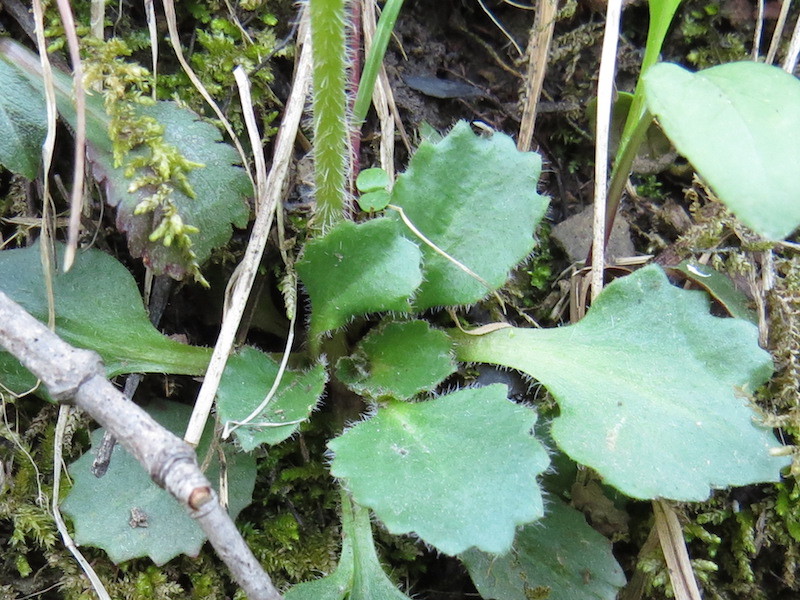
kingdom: Plantae
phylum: Tracheophyta
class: Magnoliopsida
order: Saxifragales
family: Saxifragaceae
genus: Micranthes
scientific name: Micranthes virginiensis
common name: Early saxifrage
